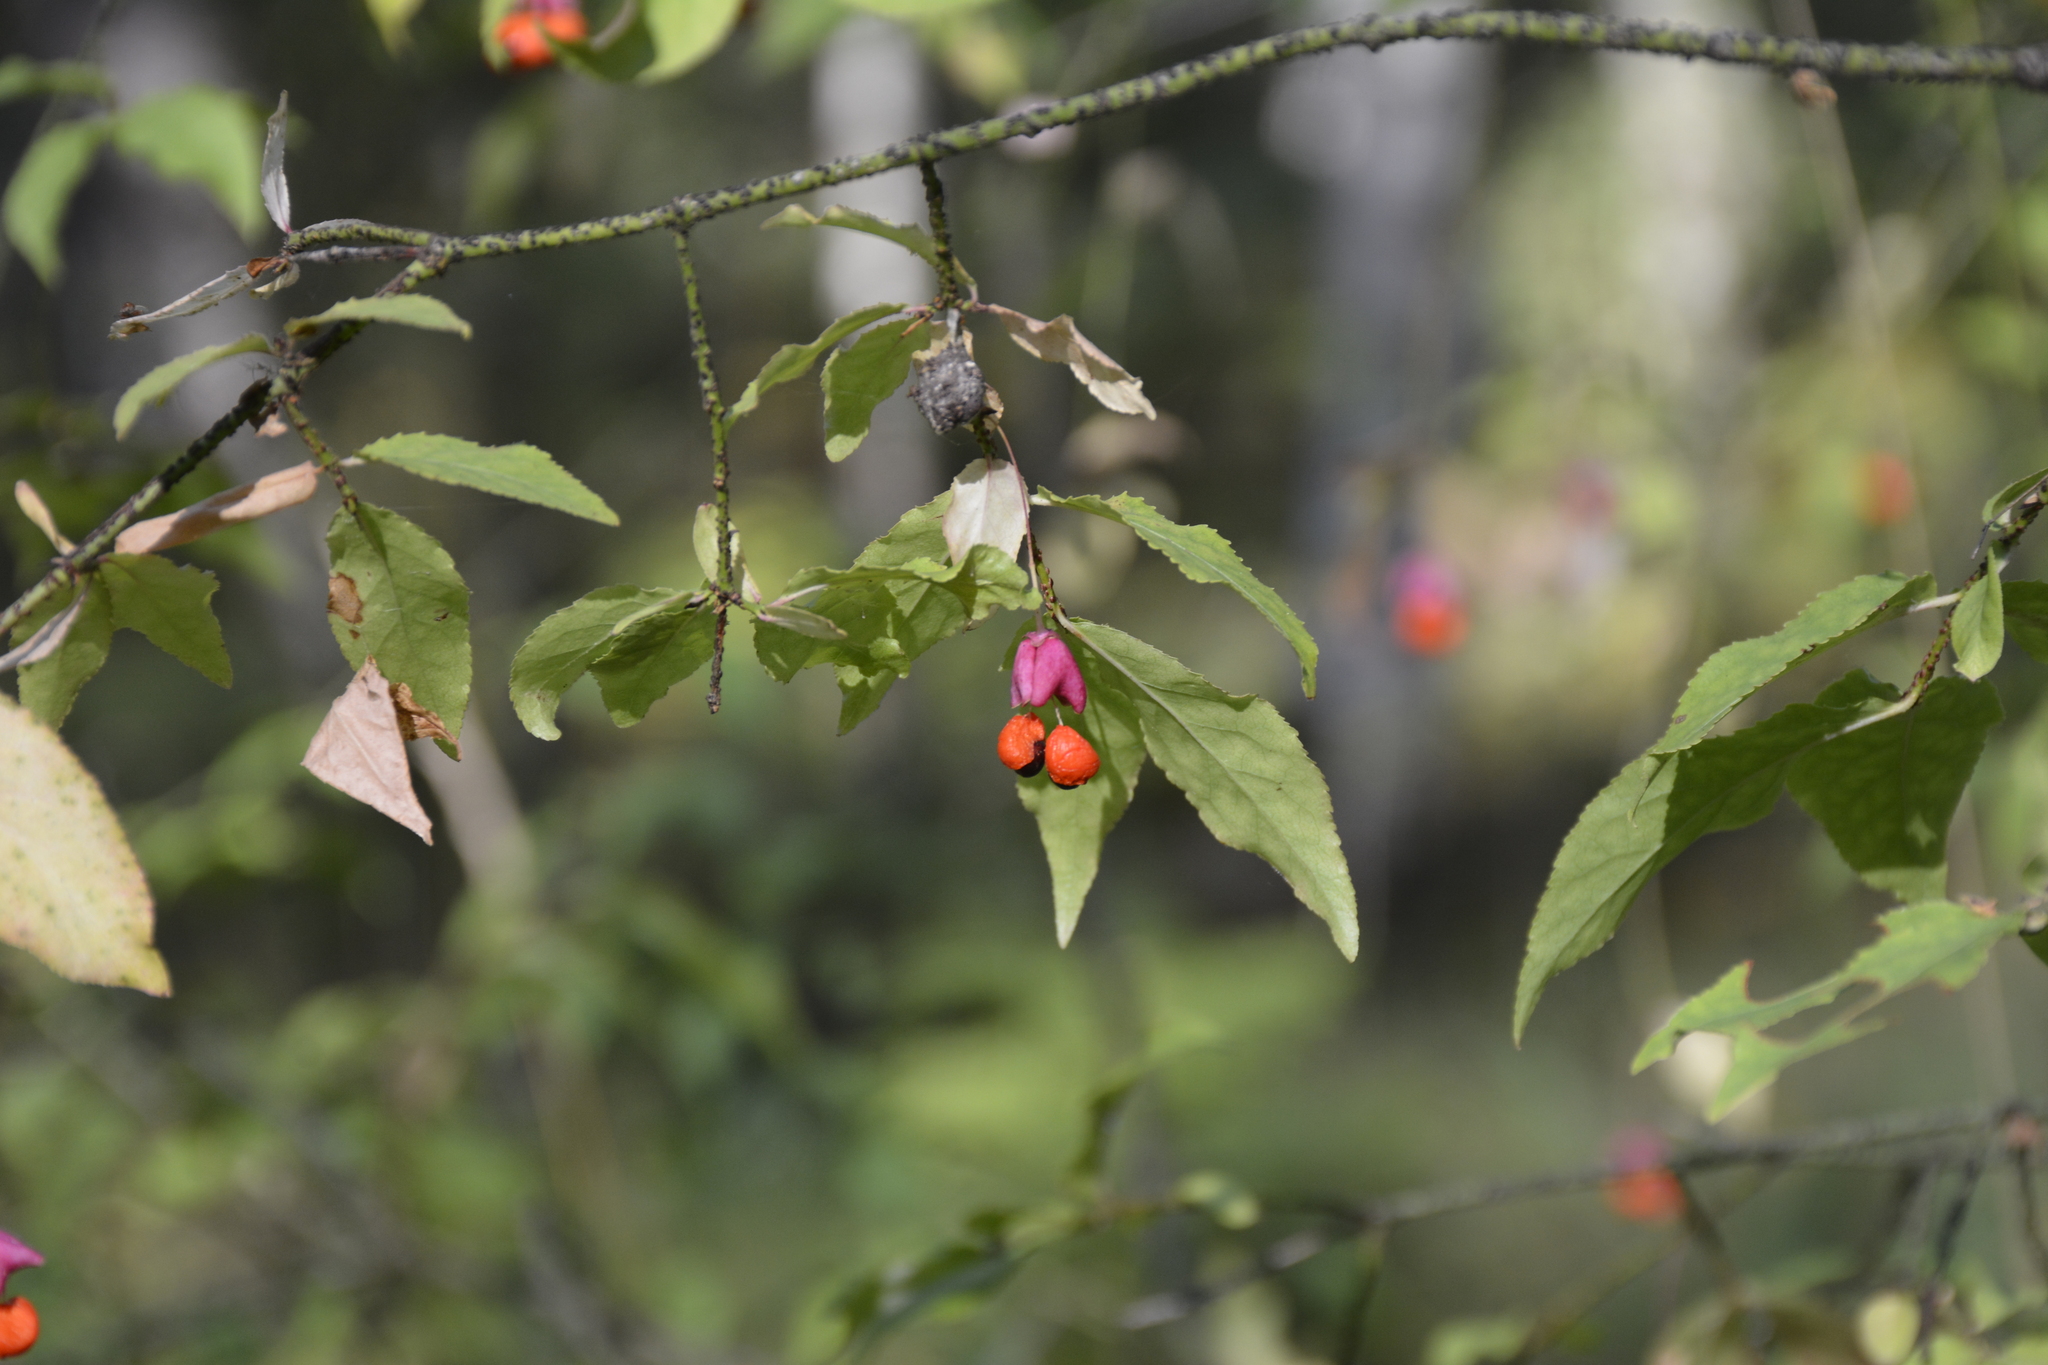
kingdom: Plantae
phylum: Tracheophyta
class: Magnoliopsida
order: Celastrales
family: Celastraceae
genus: Euonymus
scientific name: Euonymus verrucosus
